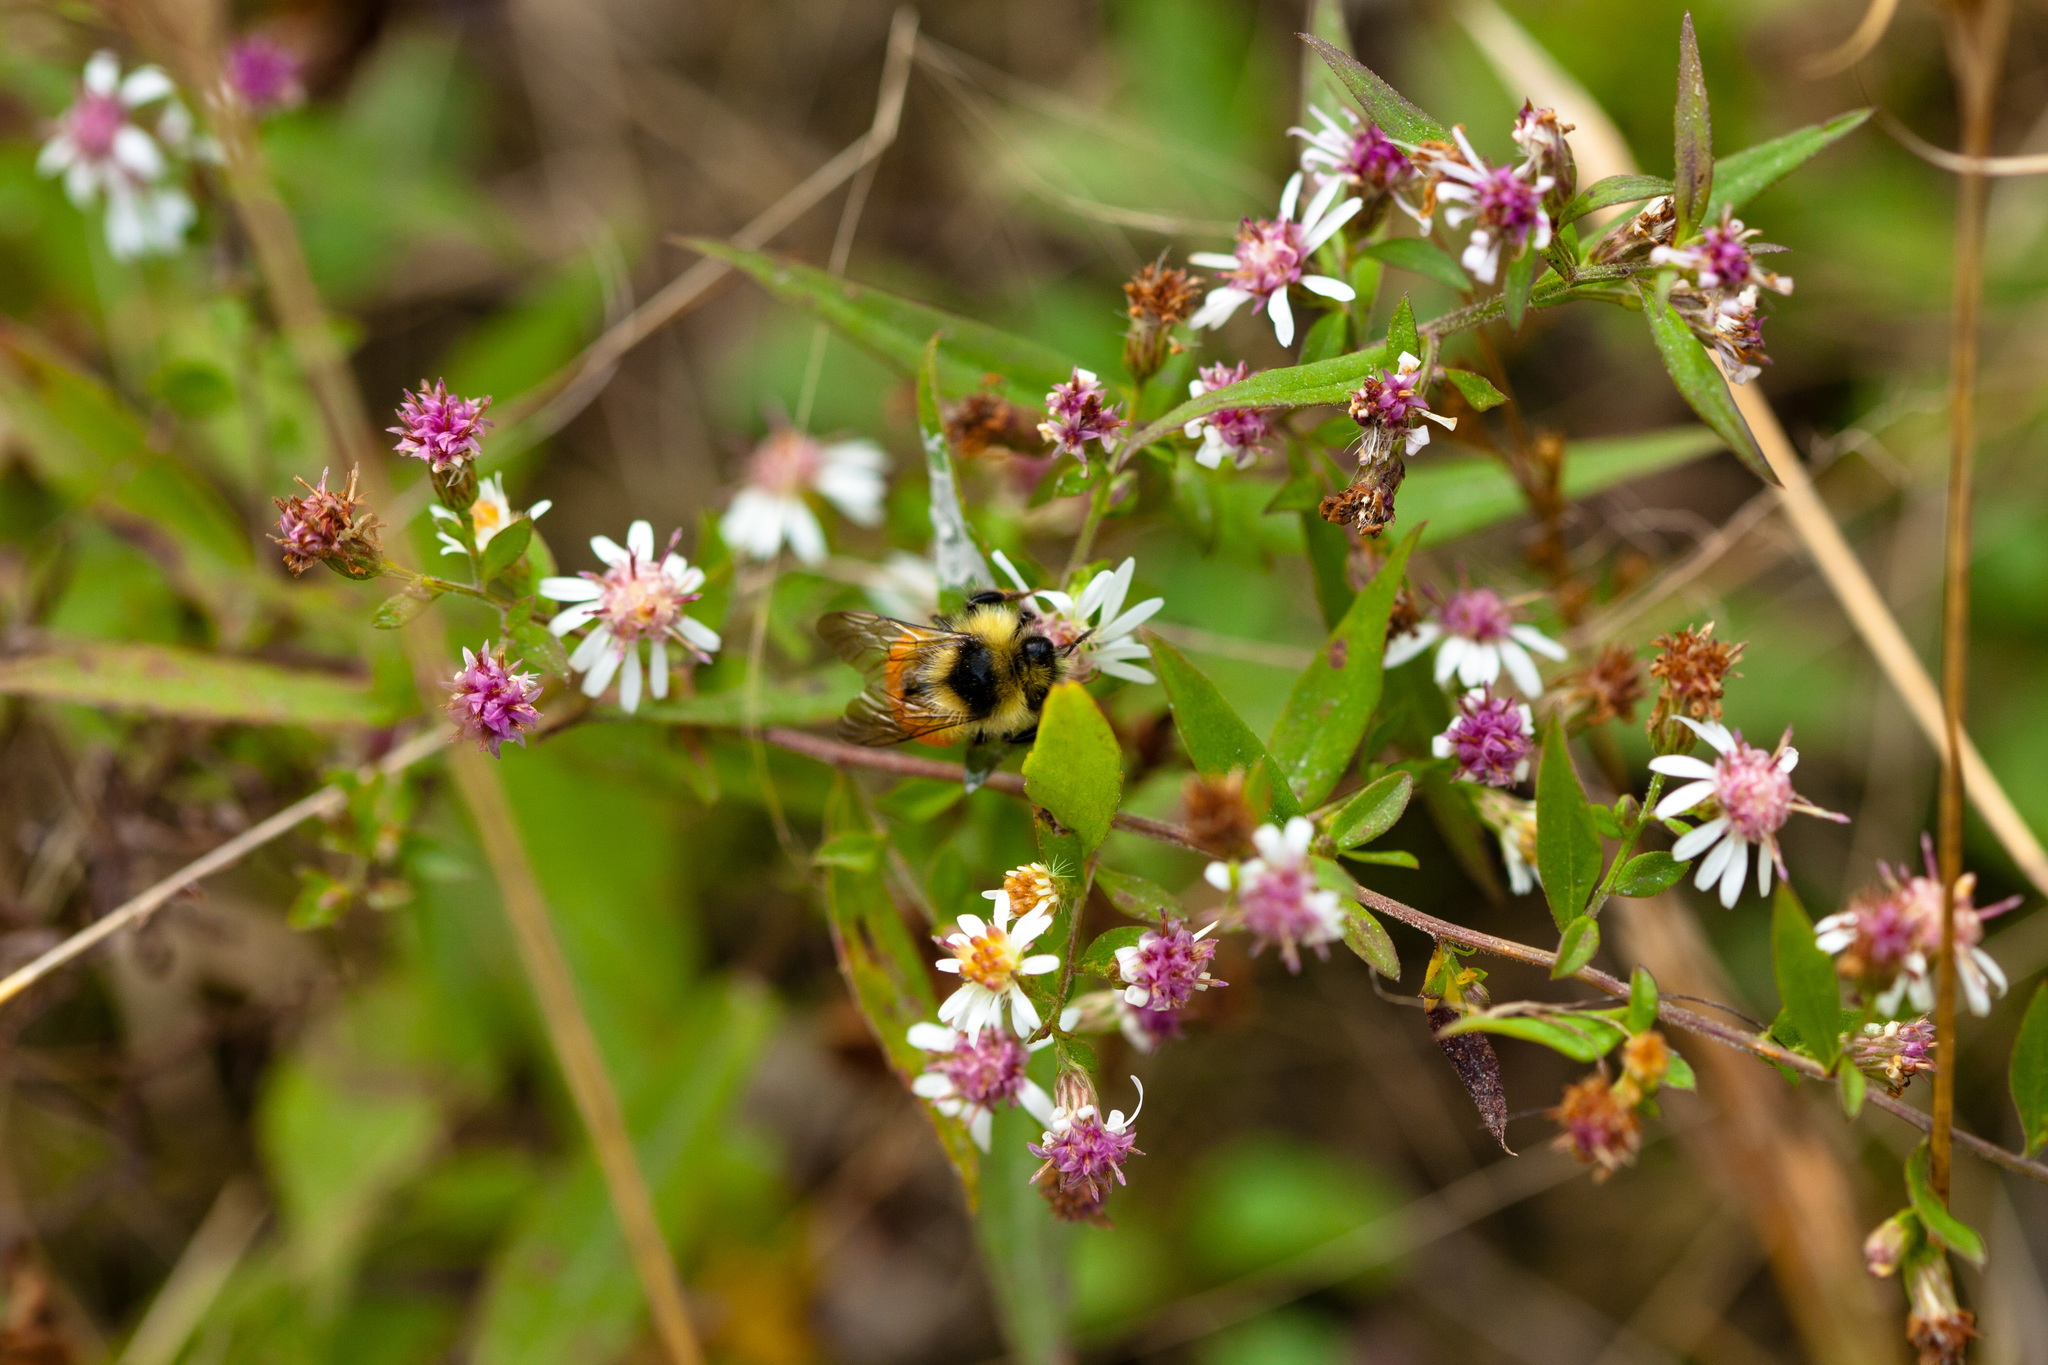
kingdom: Plantae
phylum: Tracheophyta
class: Magnoliopsida
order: Asterales
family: Asteraceae
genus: Symphyotrichum
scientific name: Symphyotrichum lateriflorum
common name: Calico aster
